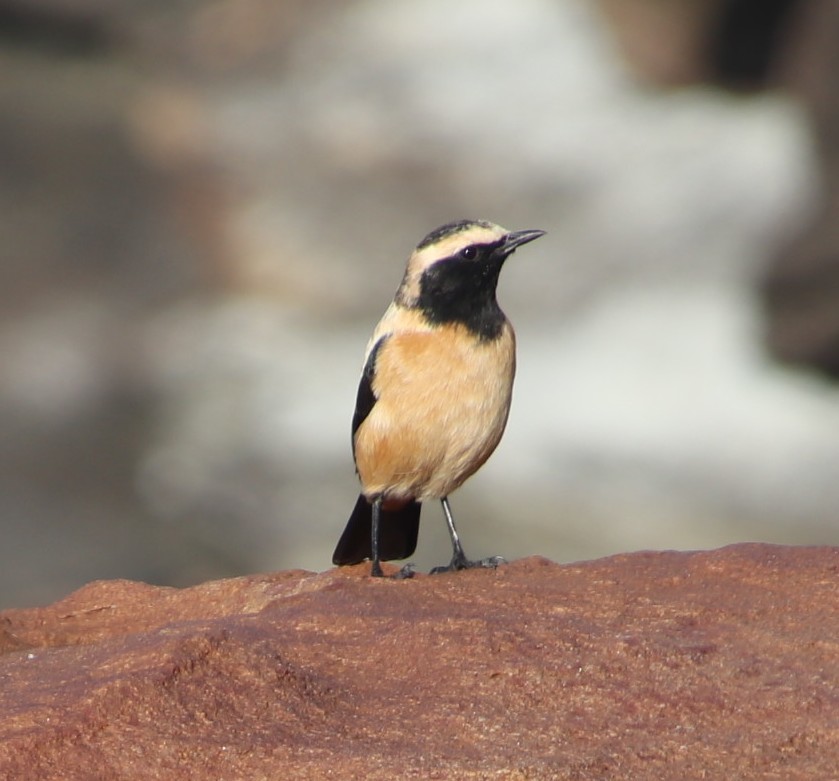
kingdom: Animalia
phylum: Chordata
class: Aves
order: Passeriformes
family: Muscicapidae
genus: Campicoloides
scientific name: Campicoloides bifasciatus
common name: Buff-streaked chat
